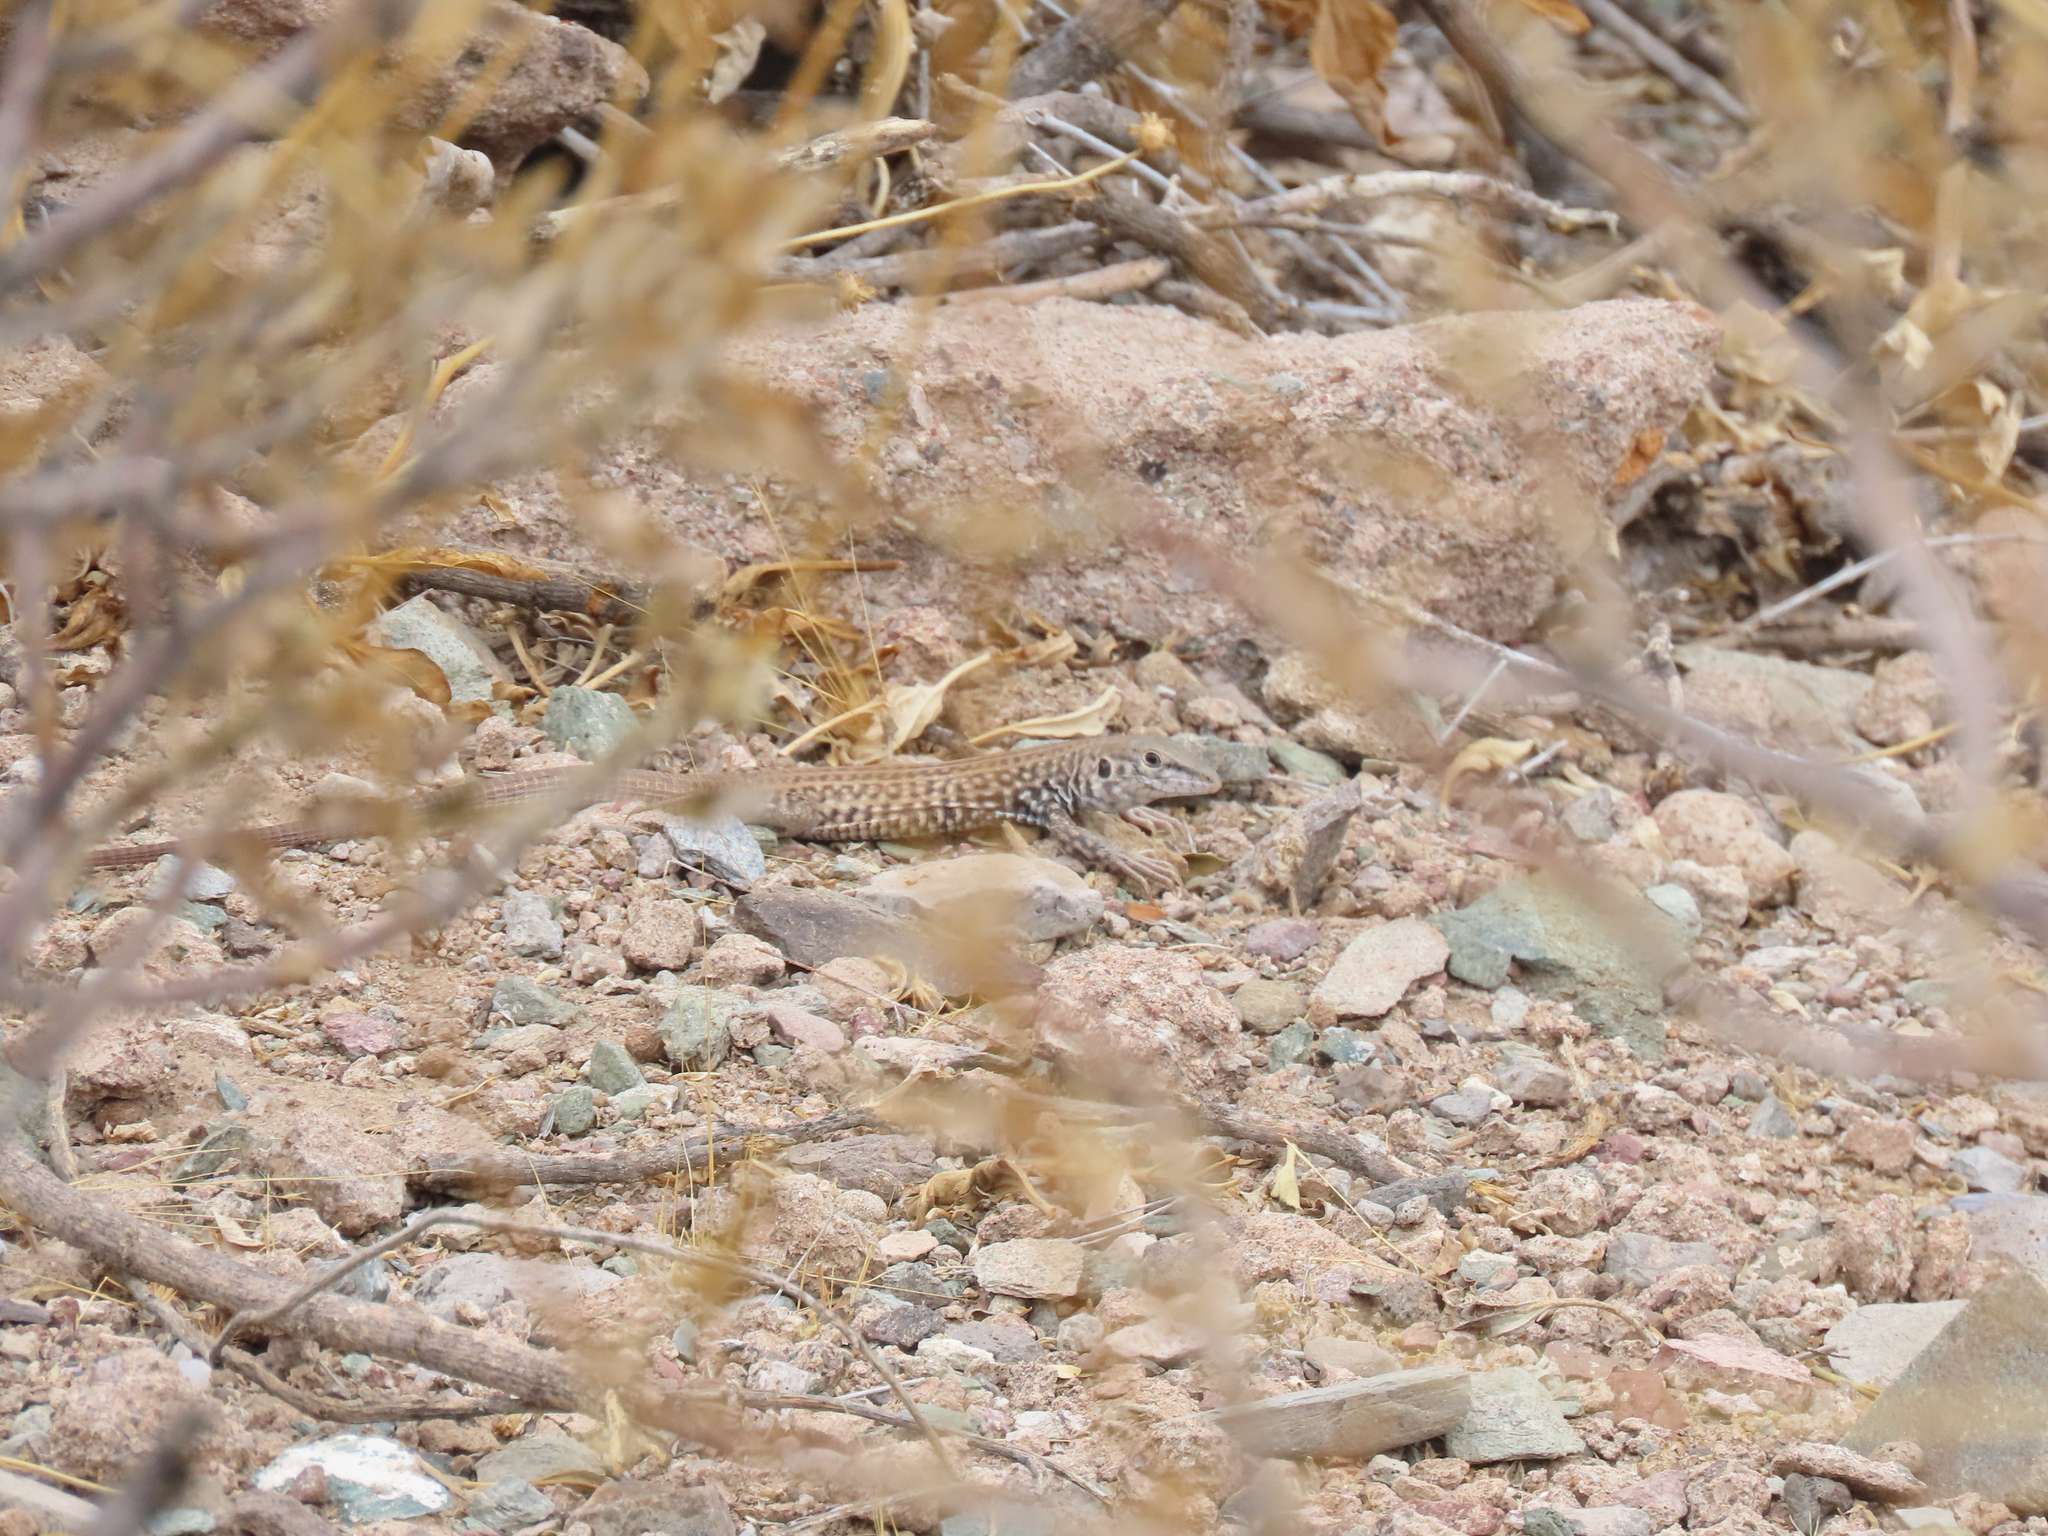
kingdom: Animalia
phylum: Chordata
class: Squamata
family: Teiidae
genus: Aspidoscelis
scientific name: Aspidoscelis tigris
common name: Tiger whiptail
